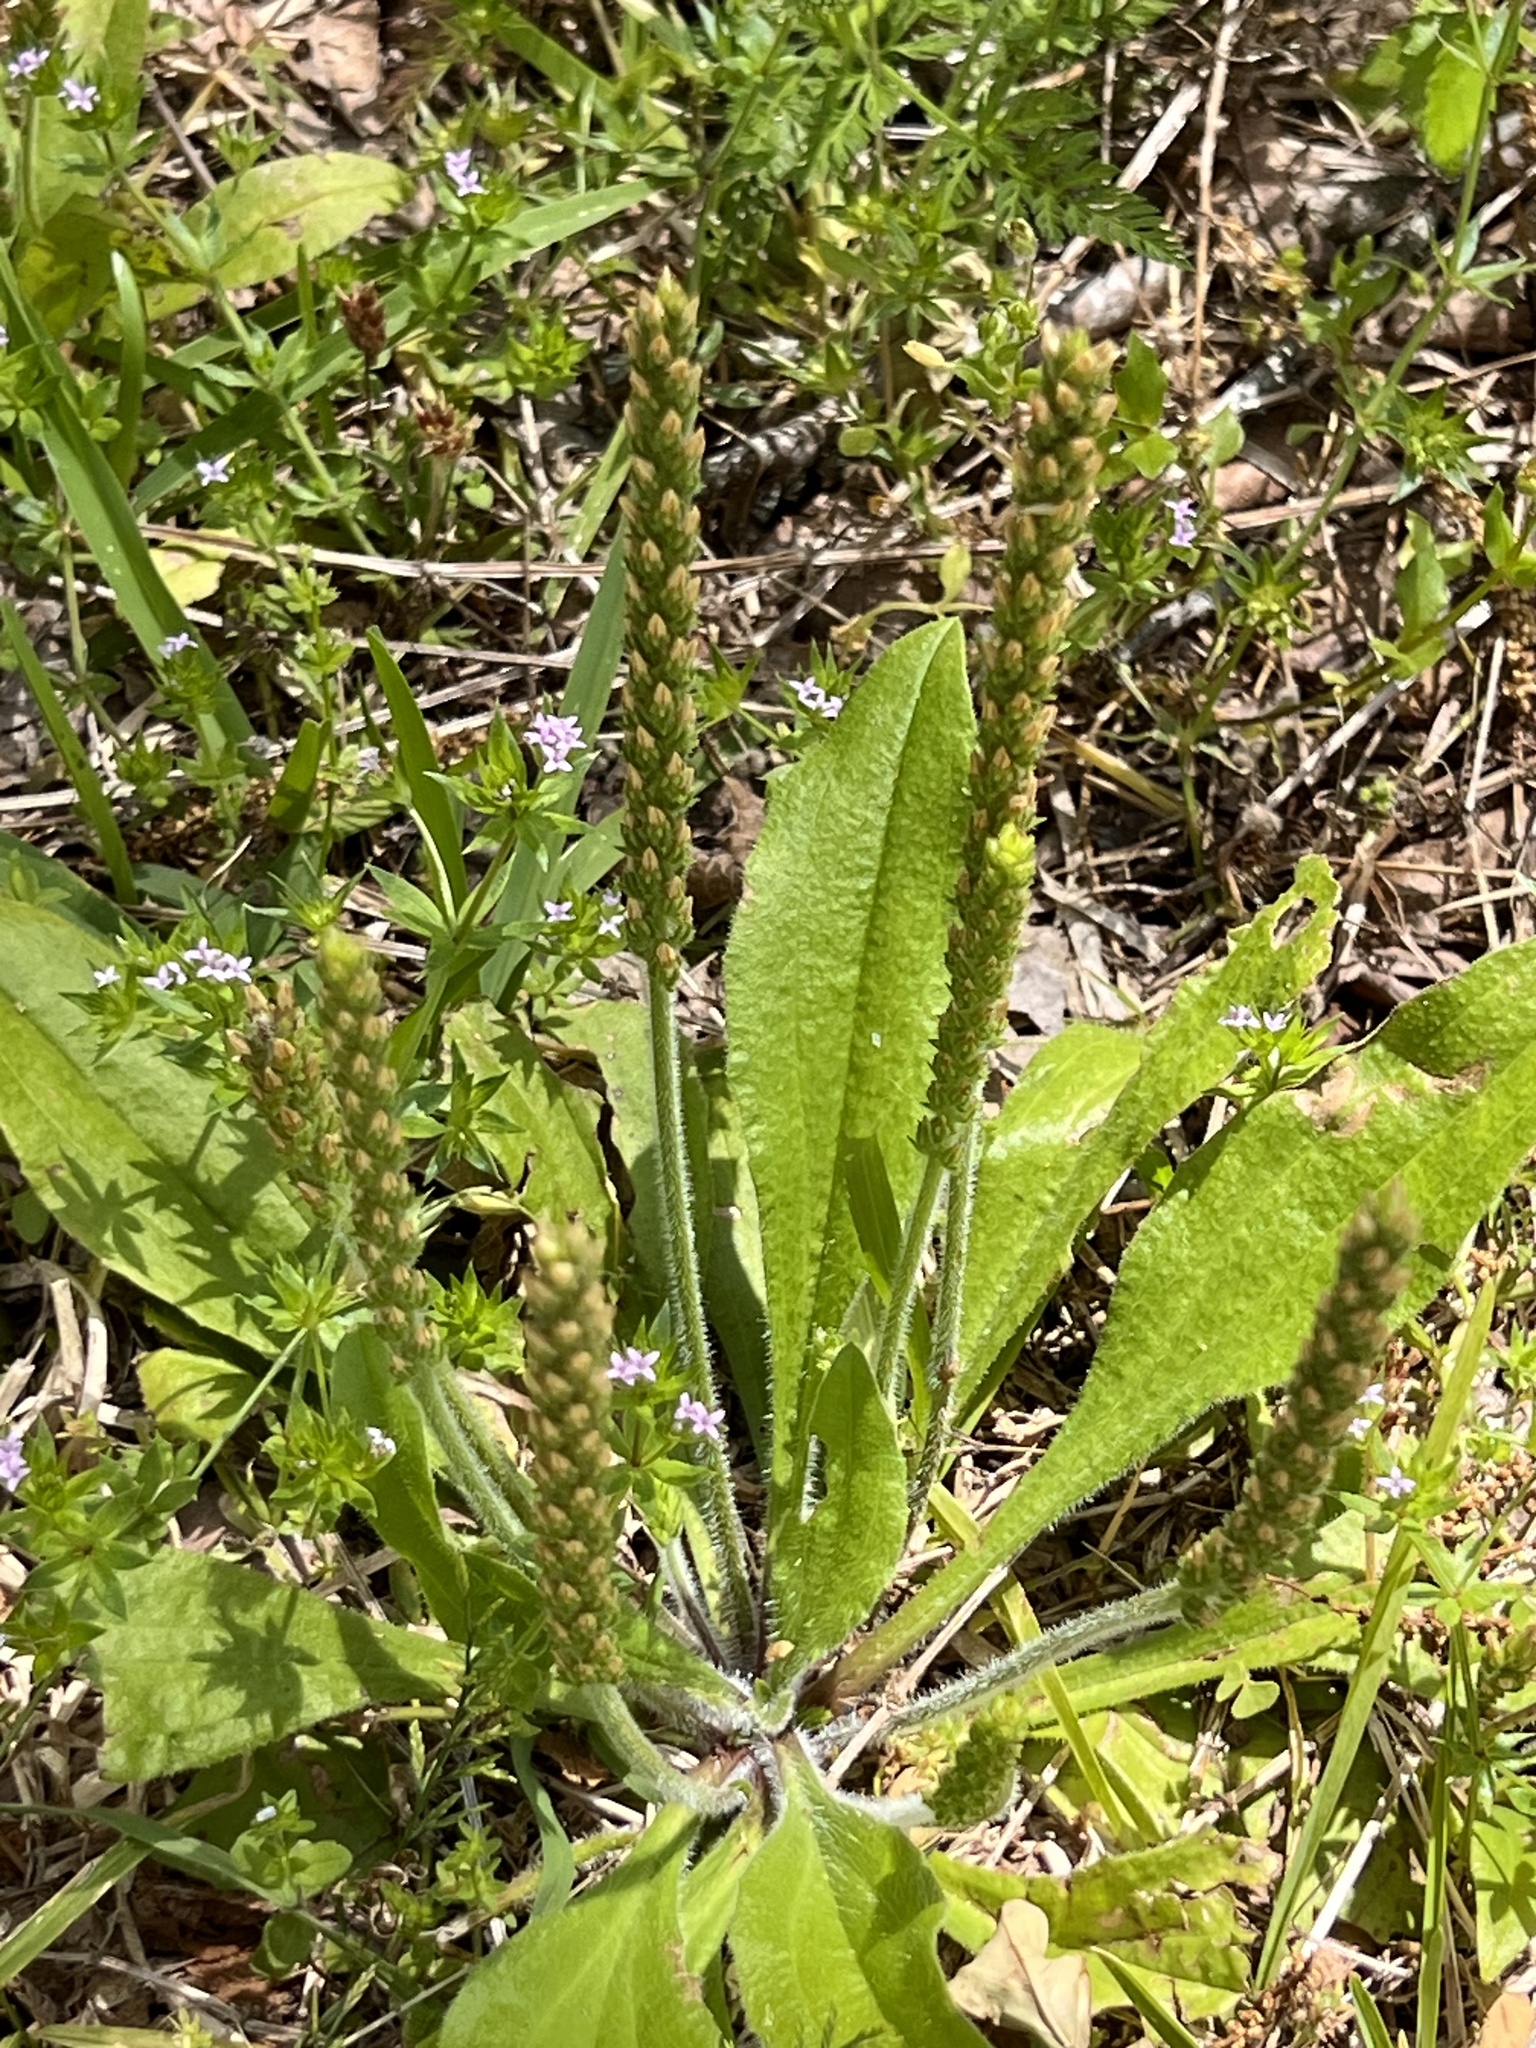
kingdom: Plantae
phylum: Tracheophyta
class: Magnoliopsida
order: Lamiales
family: Plantaginaceae
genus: Plantago
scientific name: Plantago rhodosperma
